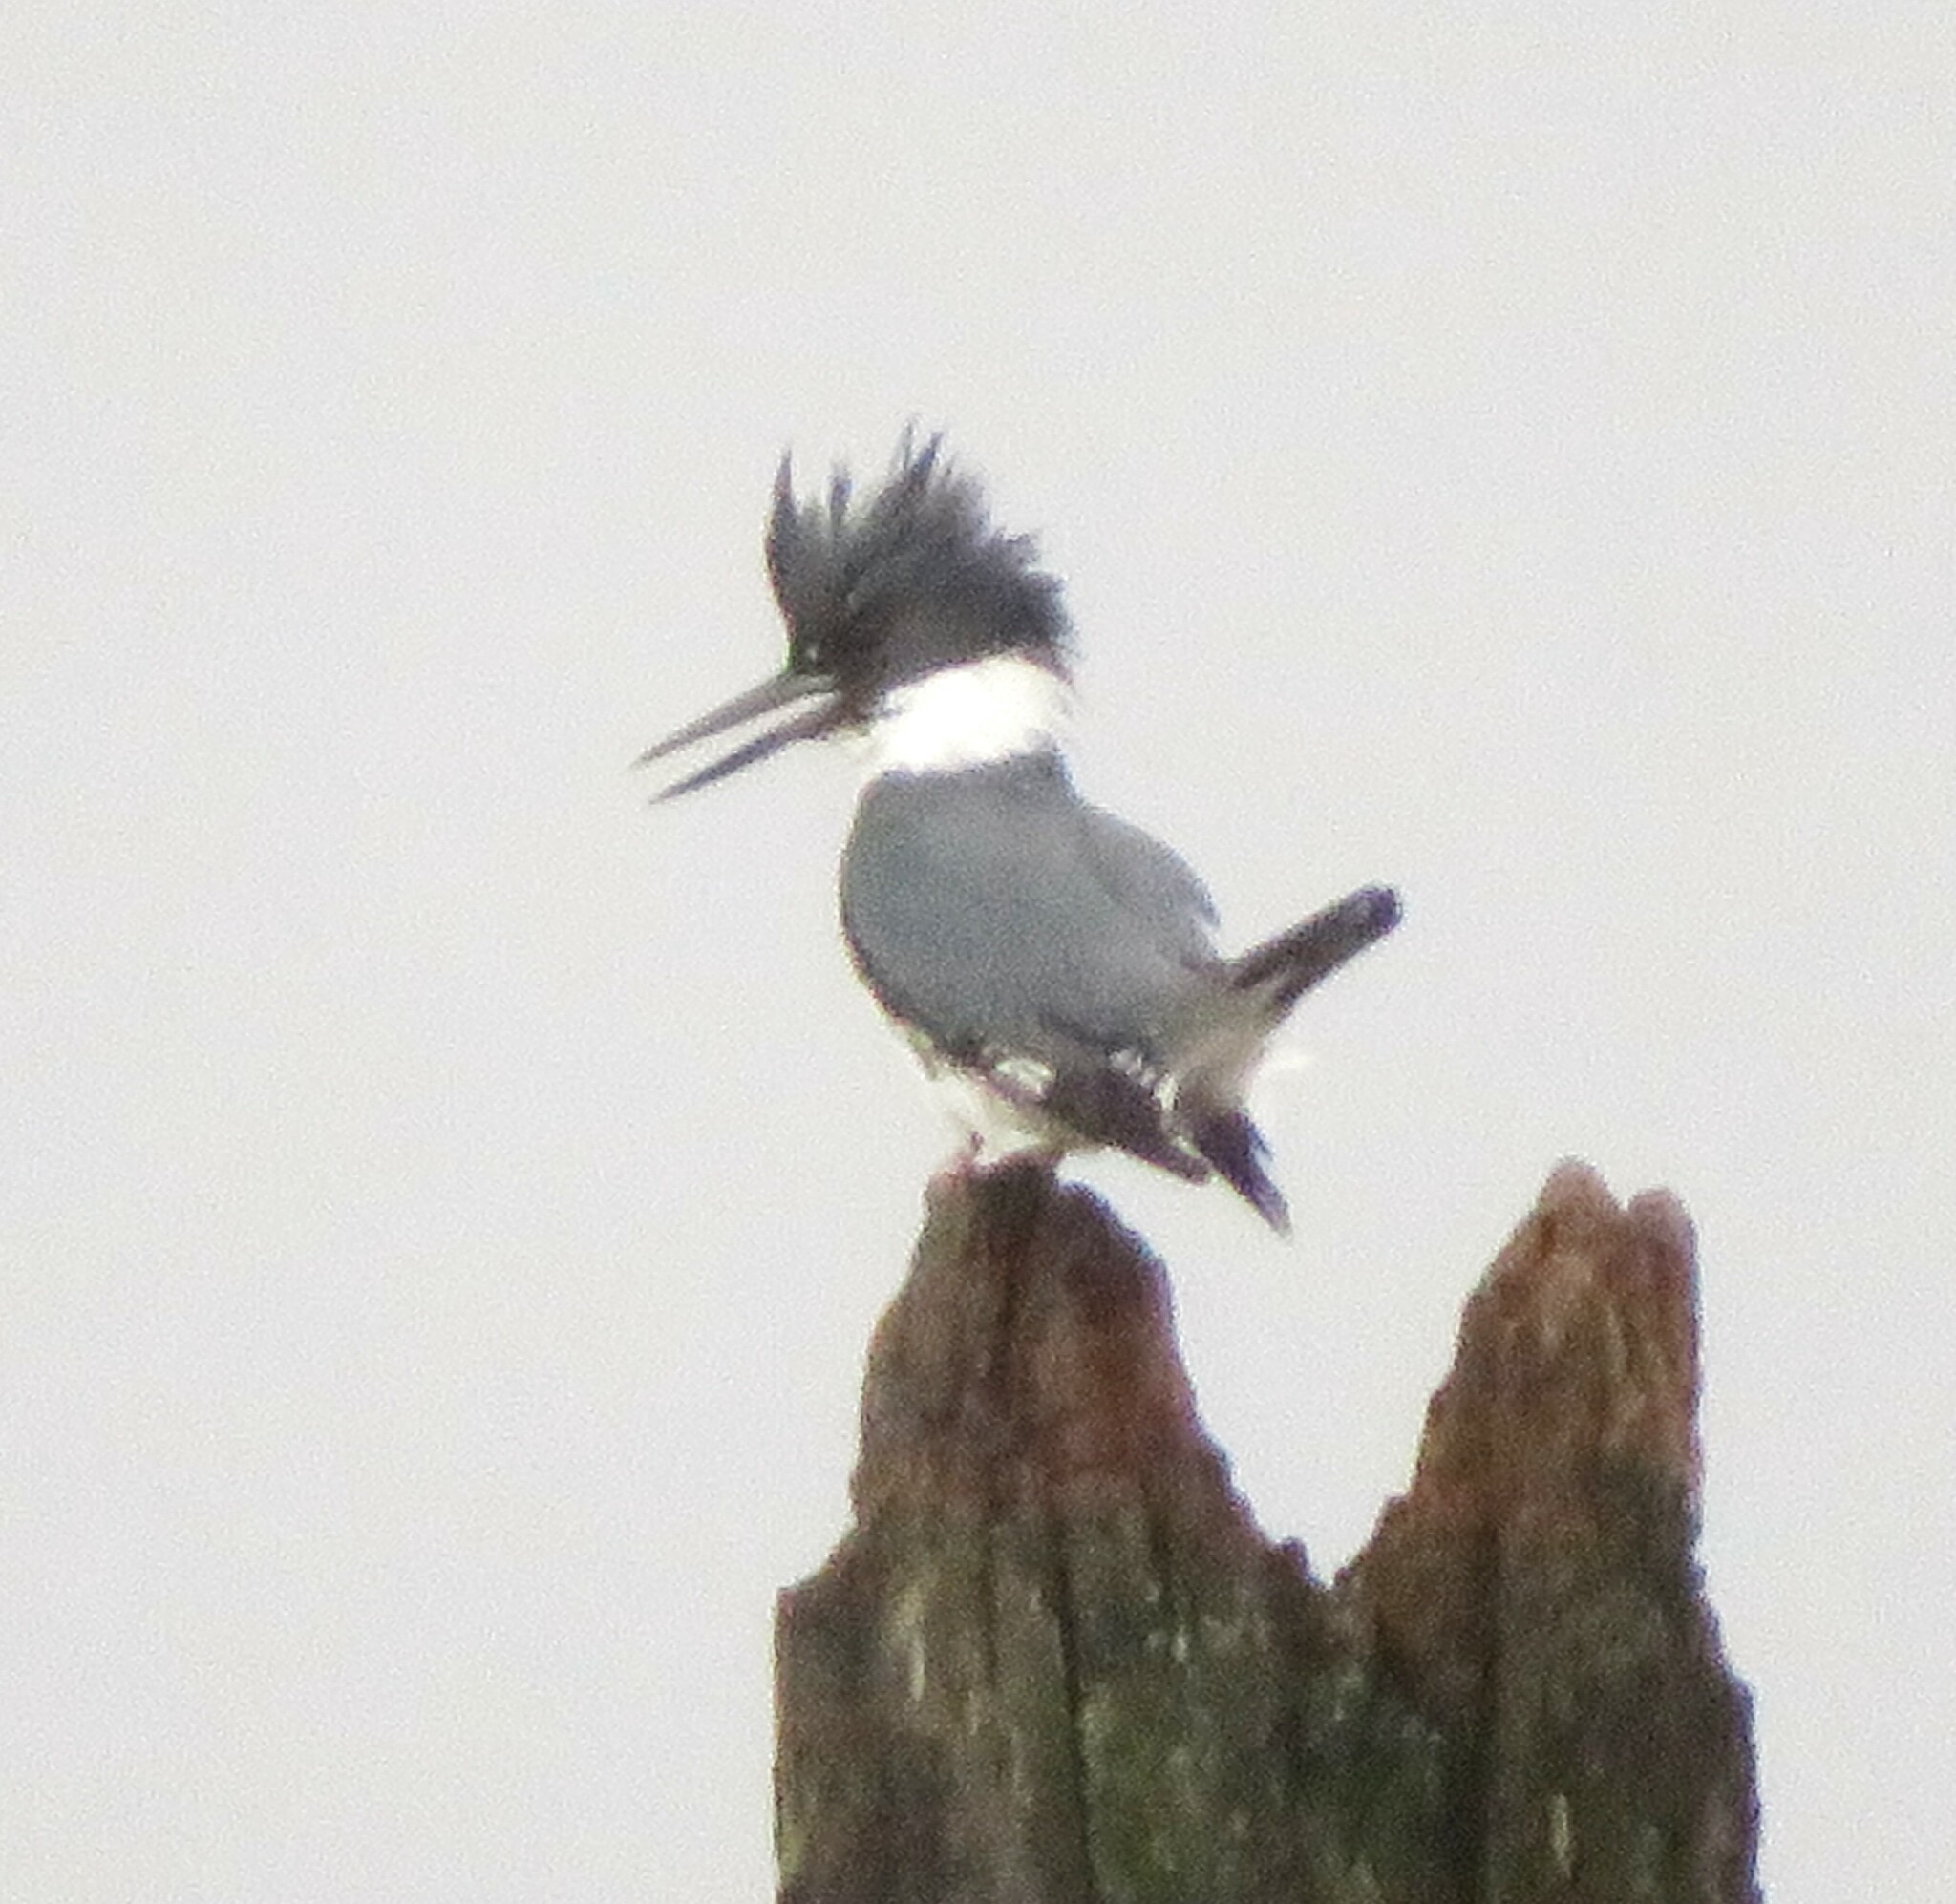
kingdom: Animalia
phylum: Chordata
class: Aves
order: Coraciiformes
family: Alcedinidae
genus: Megaceryle
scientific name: Megaceryle alcyon
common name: Belted kingfisher
